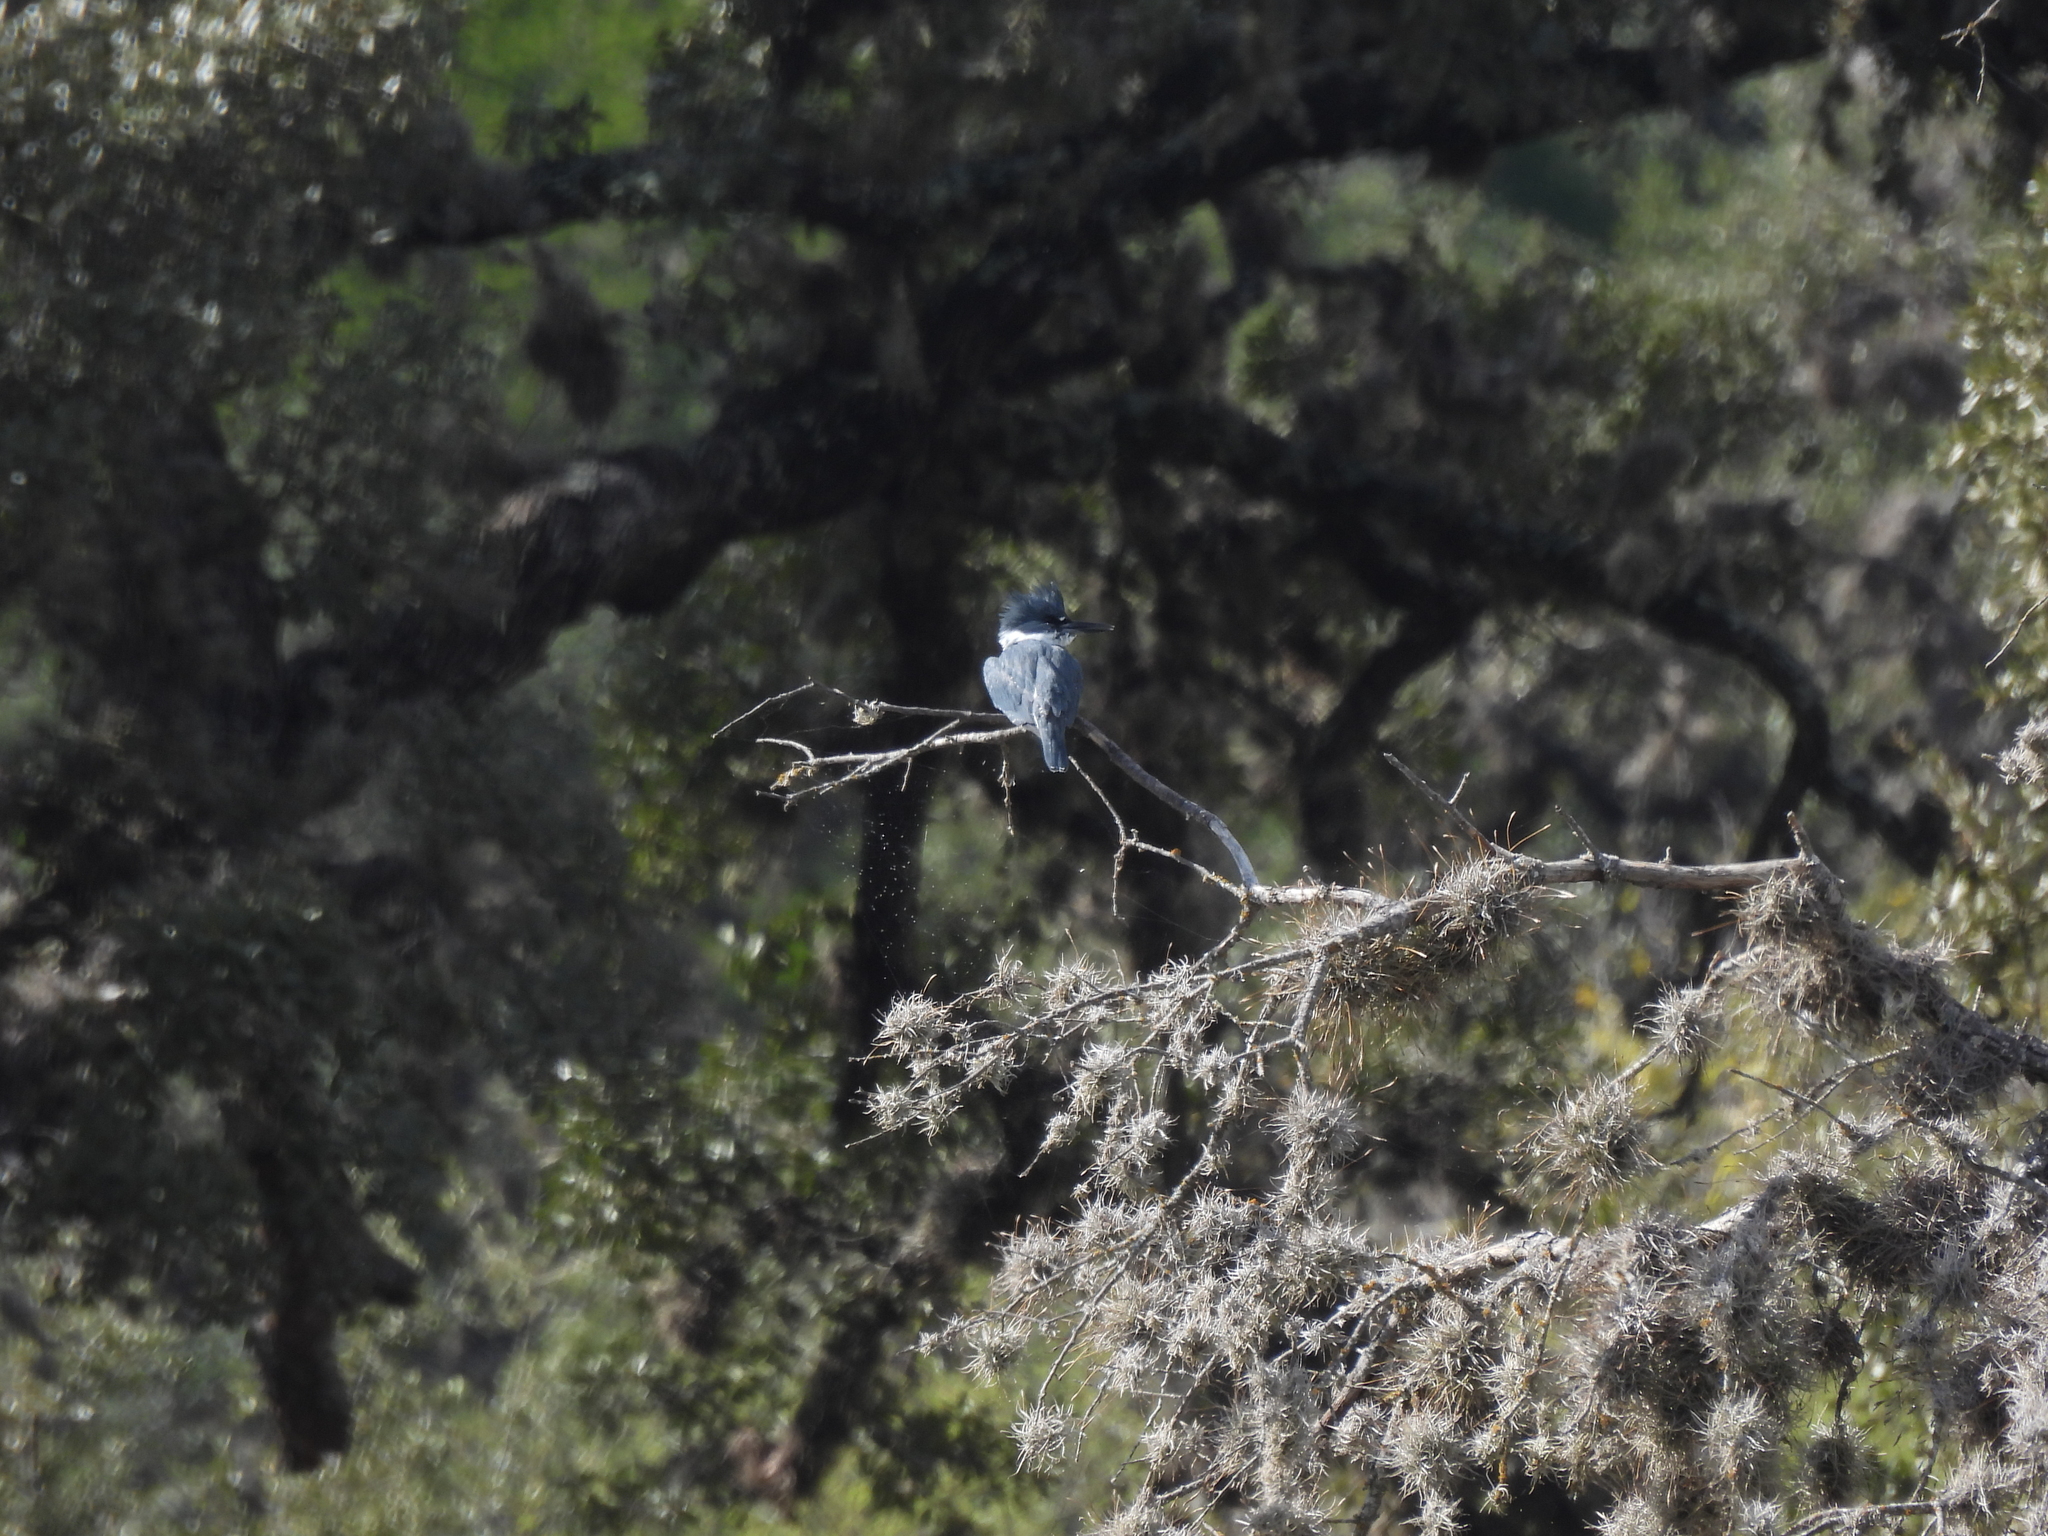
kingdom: Animalia
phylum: Chordata
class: Aves
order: Coraciiformes
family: Alcedinidae
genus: Megaceryle
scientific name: Megaceryle alcyon
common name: Belted kingfisher
